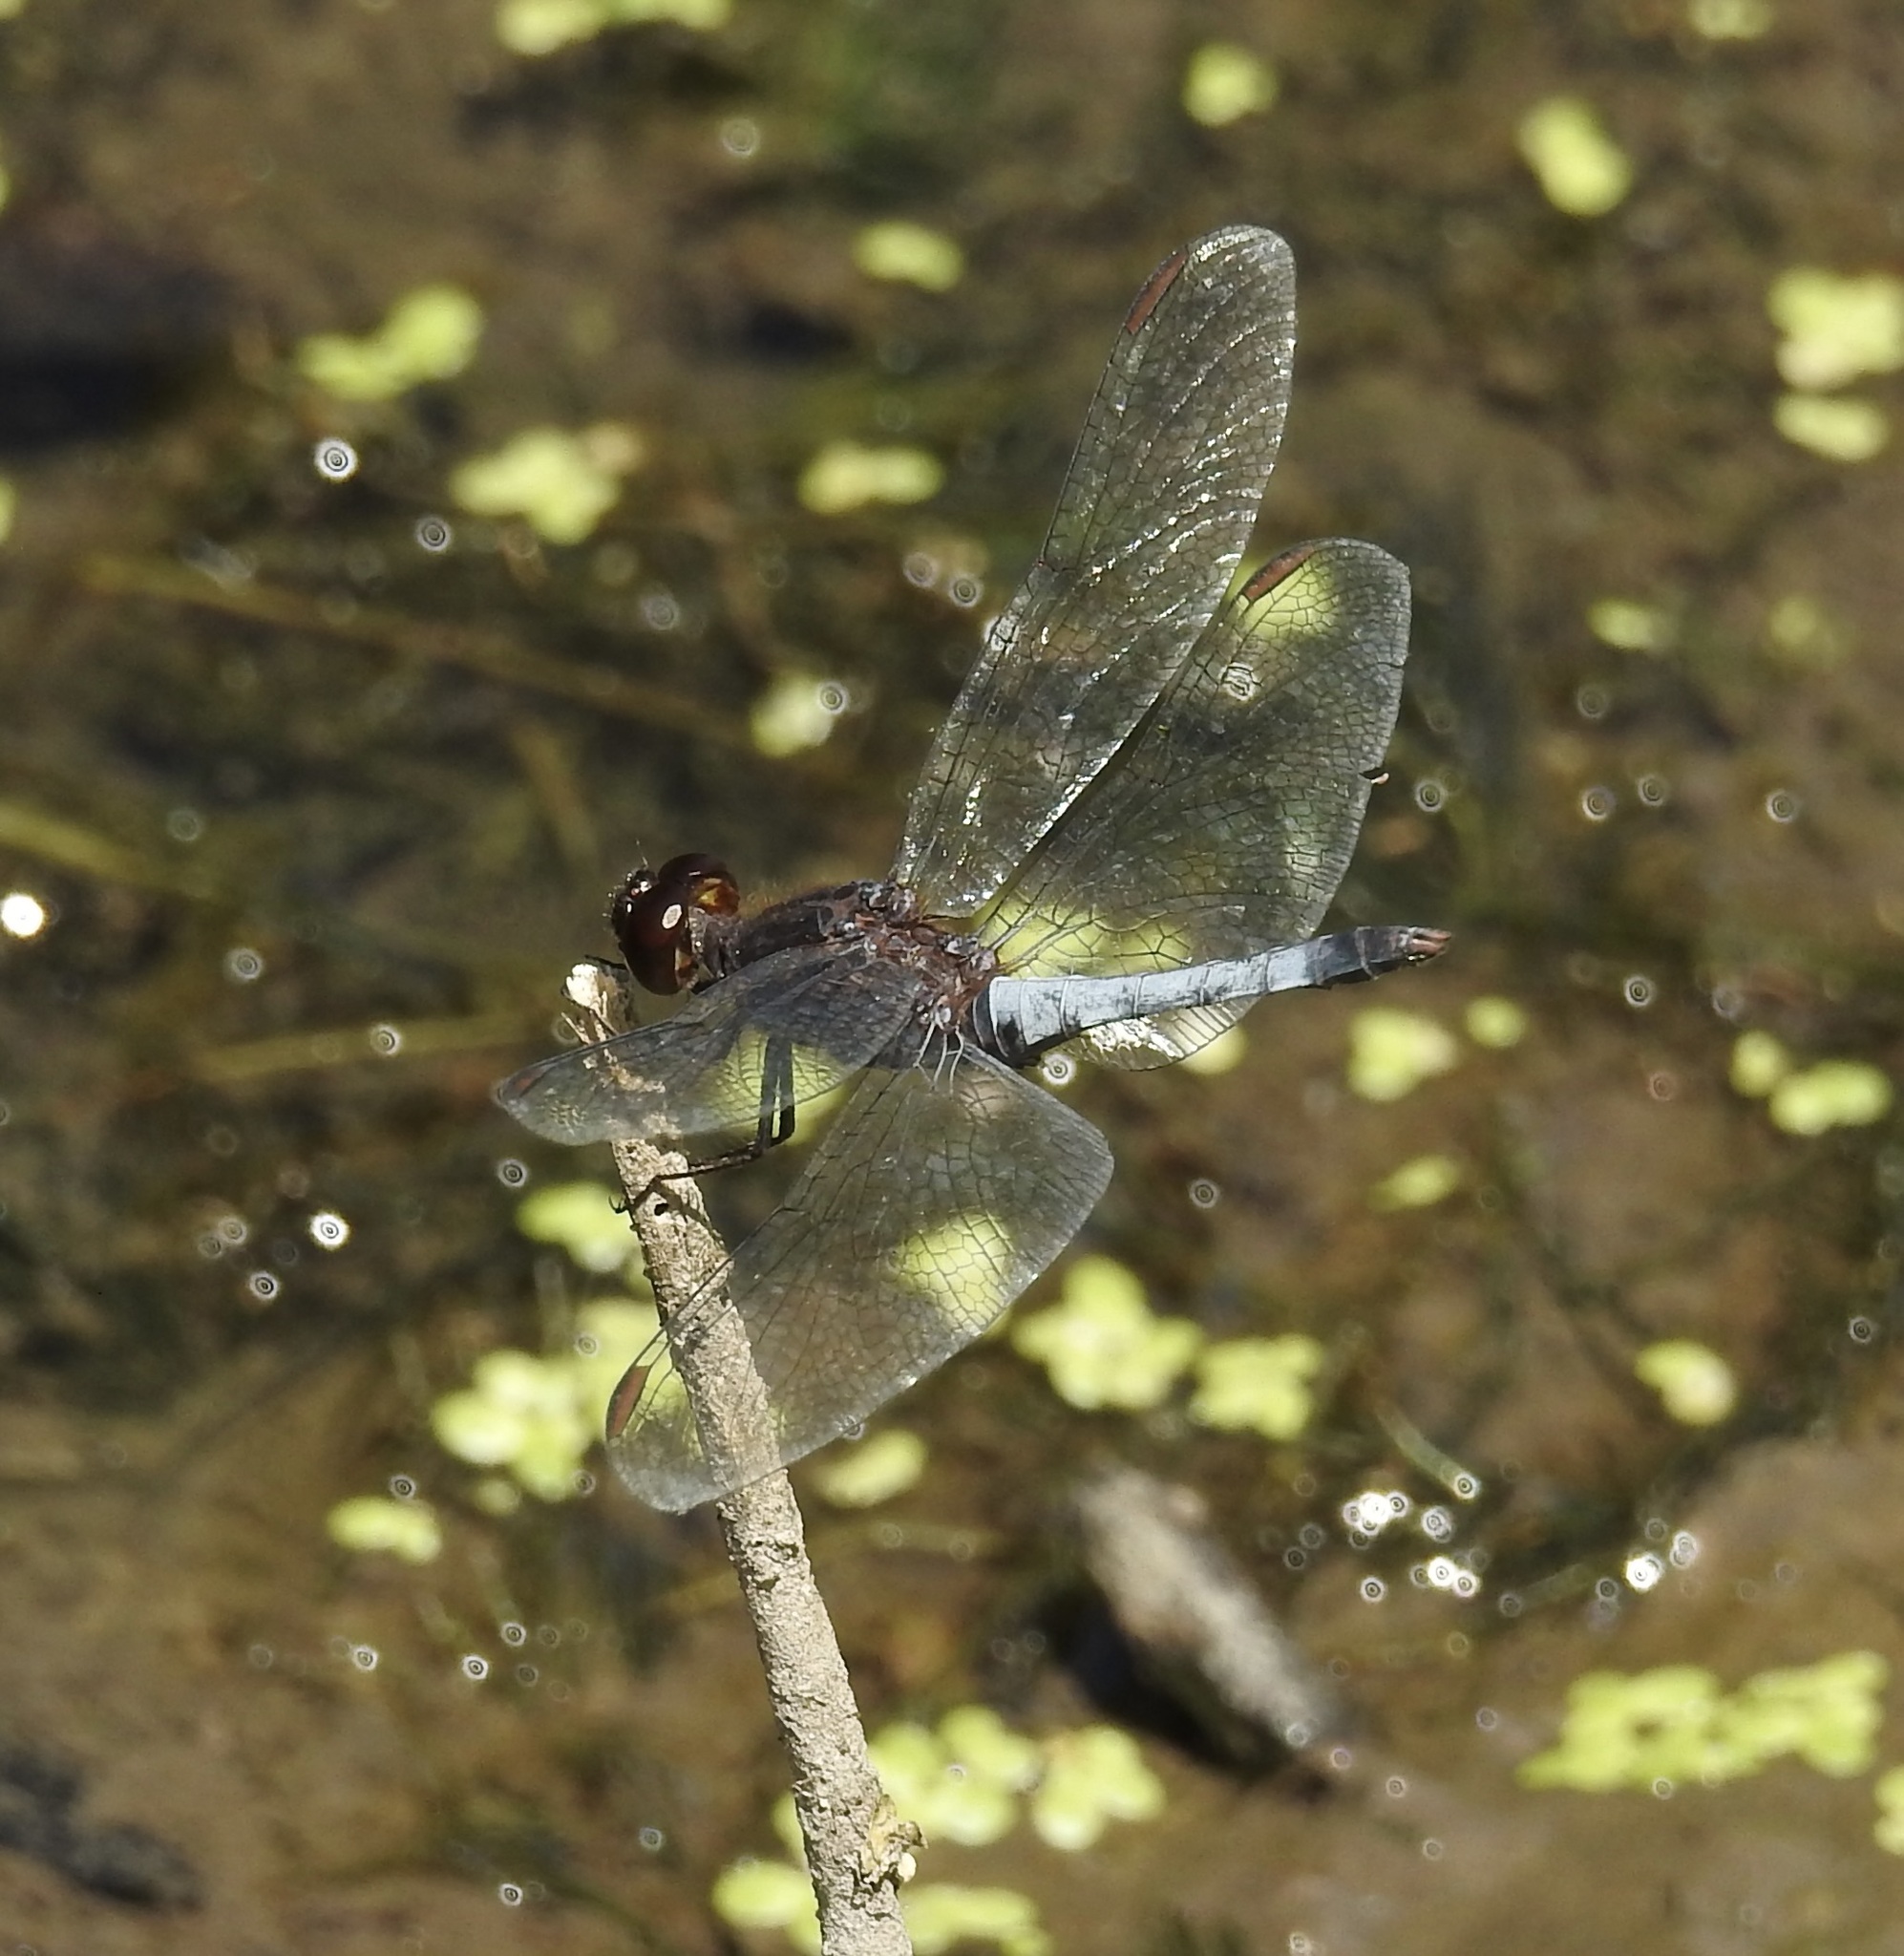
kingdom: Animalia
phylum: Arthropoda
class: Insecta
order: Odonata
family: Libellulidae
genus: Erythrodiplax
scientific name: Erythrodiplax basifusca
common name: Plateau dragonlet
